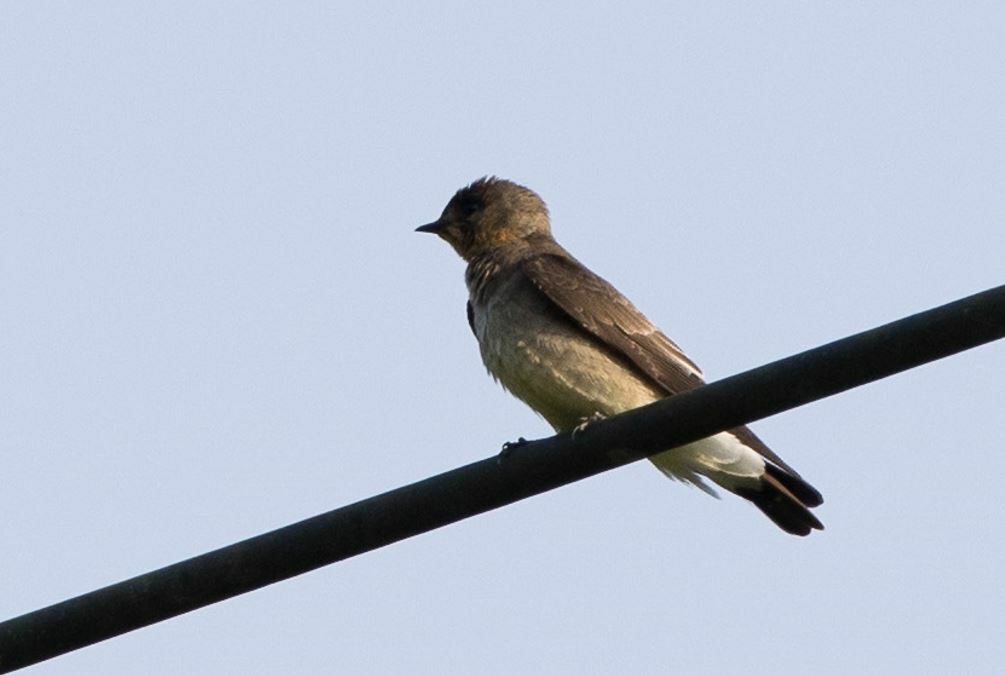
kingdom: Animalia
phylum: Chordata
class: Aves
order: Passeriformes
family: Hirundinidae
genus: Stelgidopteryx
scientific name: Stelgidopteryx ruficollis
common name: Southern rough-winged swallow
